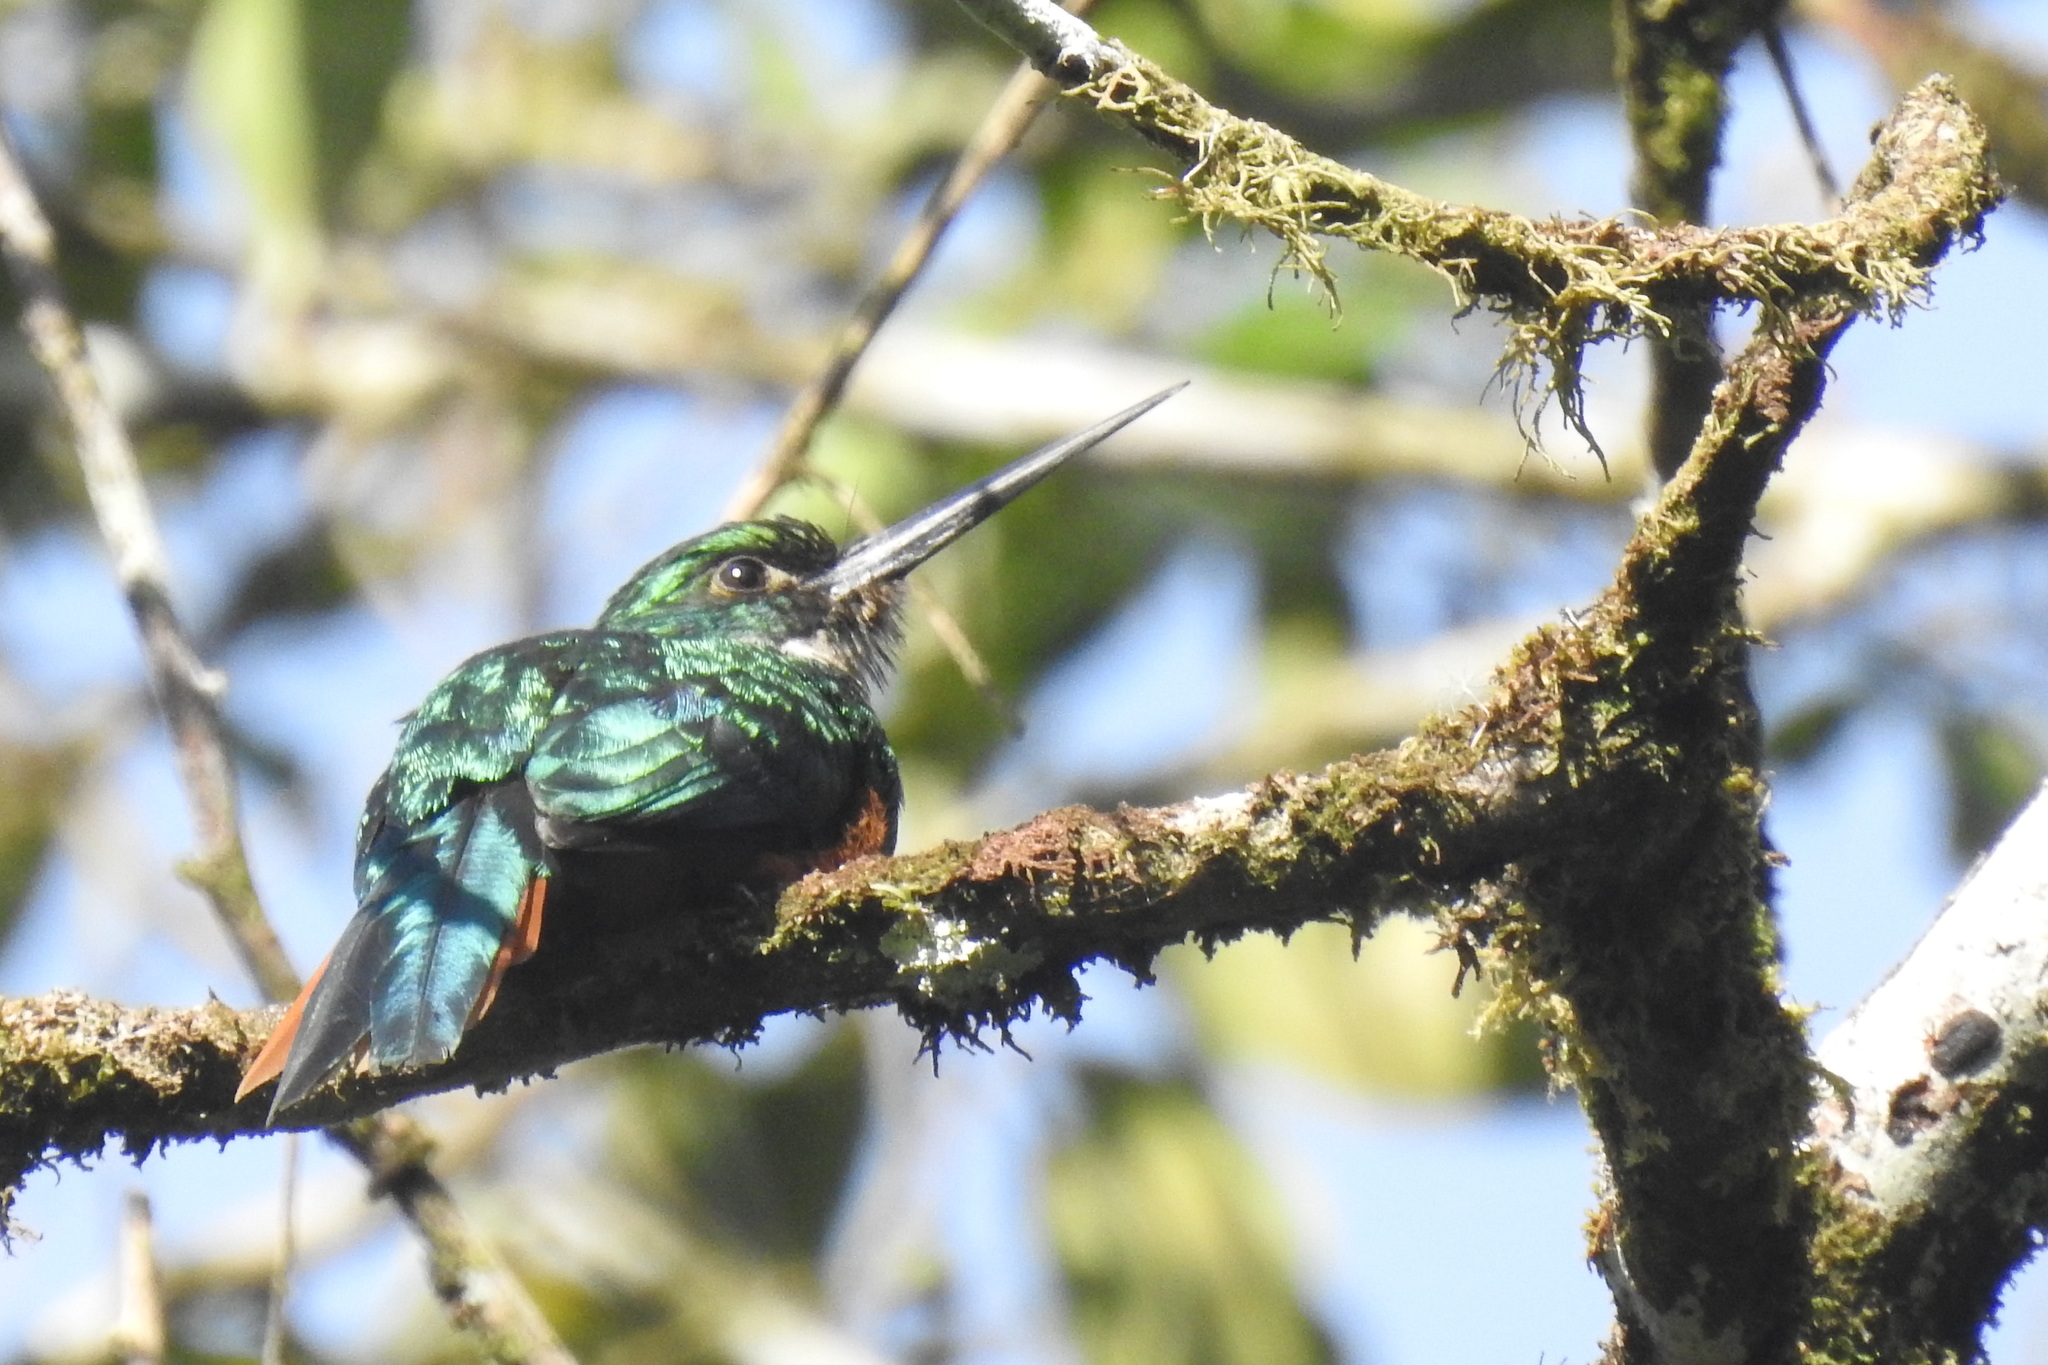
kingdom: Animalia
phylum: Chordata
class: Aves
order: Piciformes
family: Galbulidae
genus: Galbula
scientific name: Galbula ruficauda
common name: Rufous-tailed jacamar
